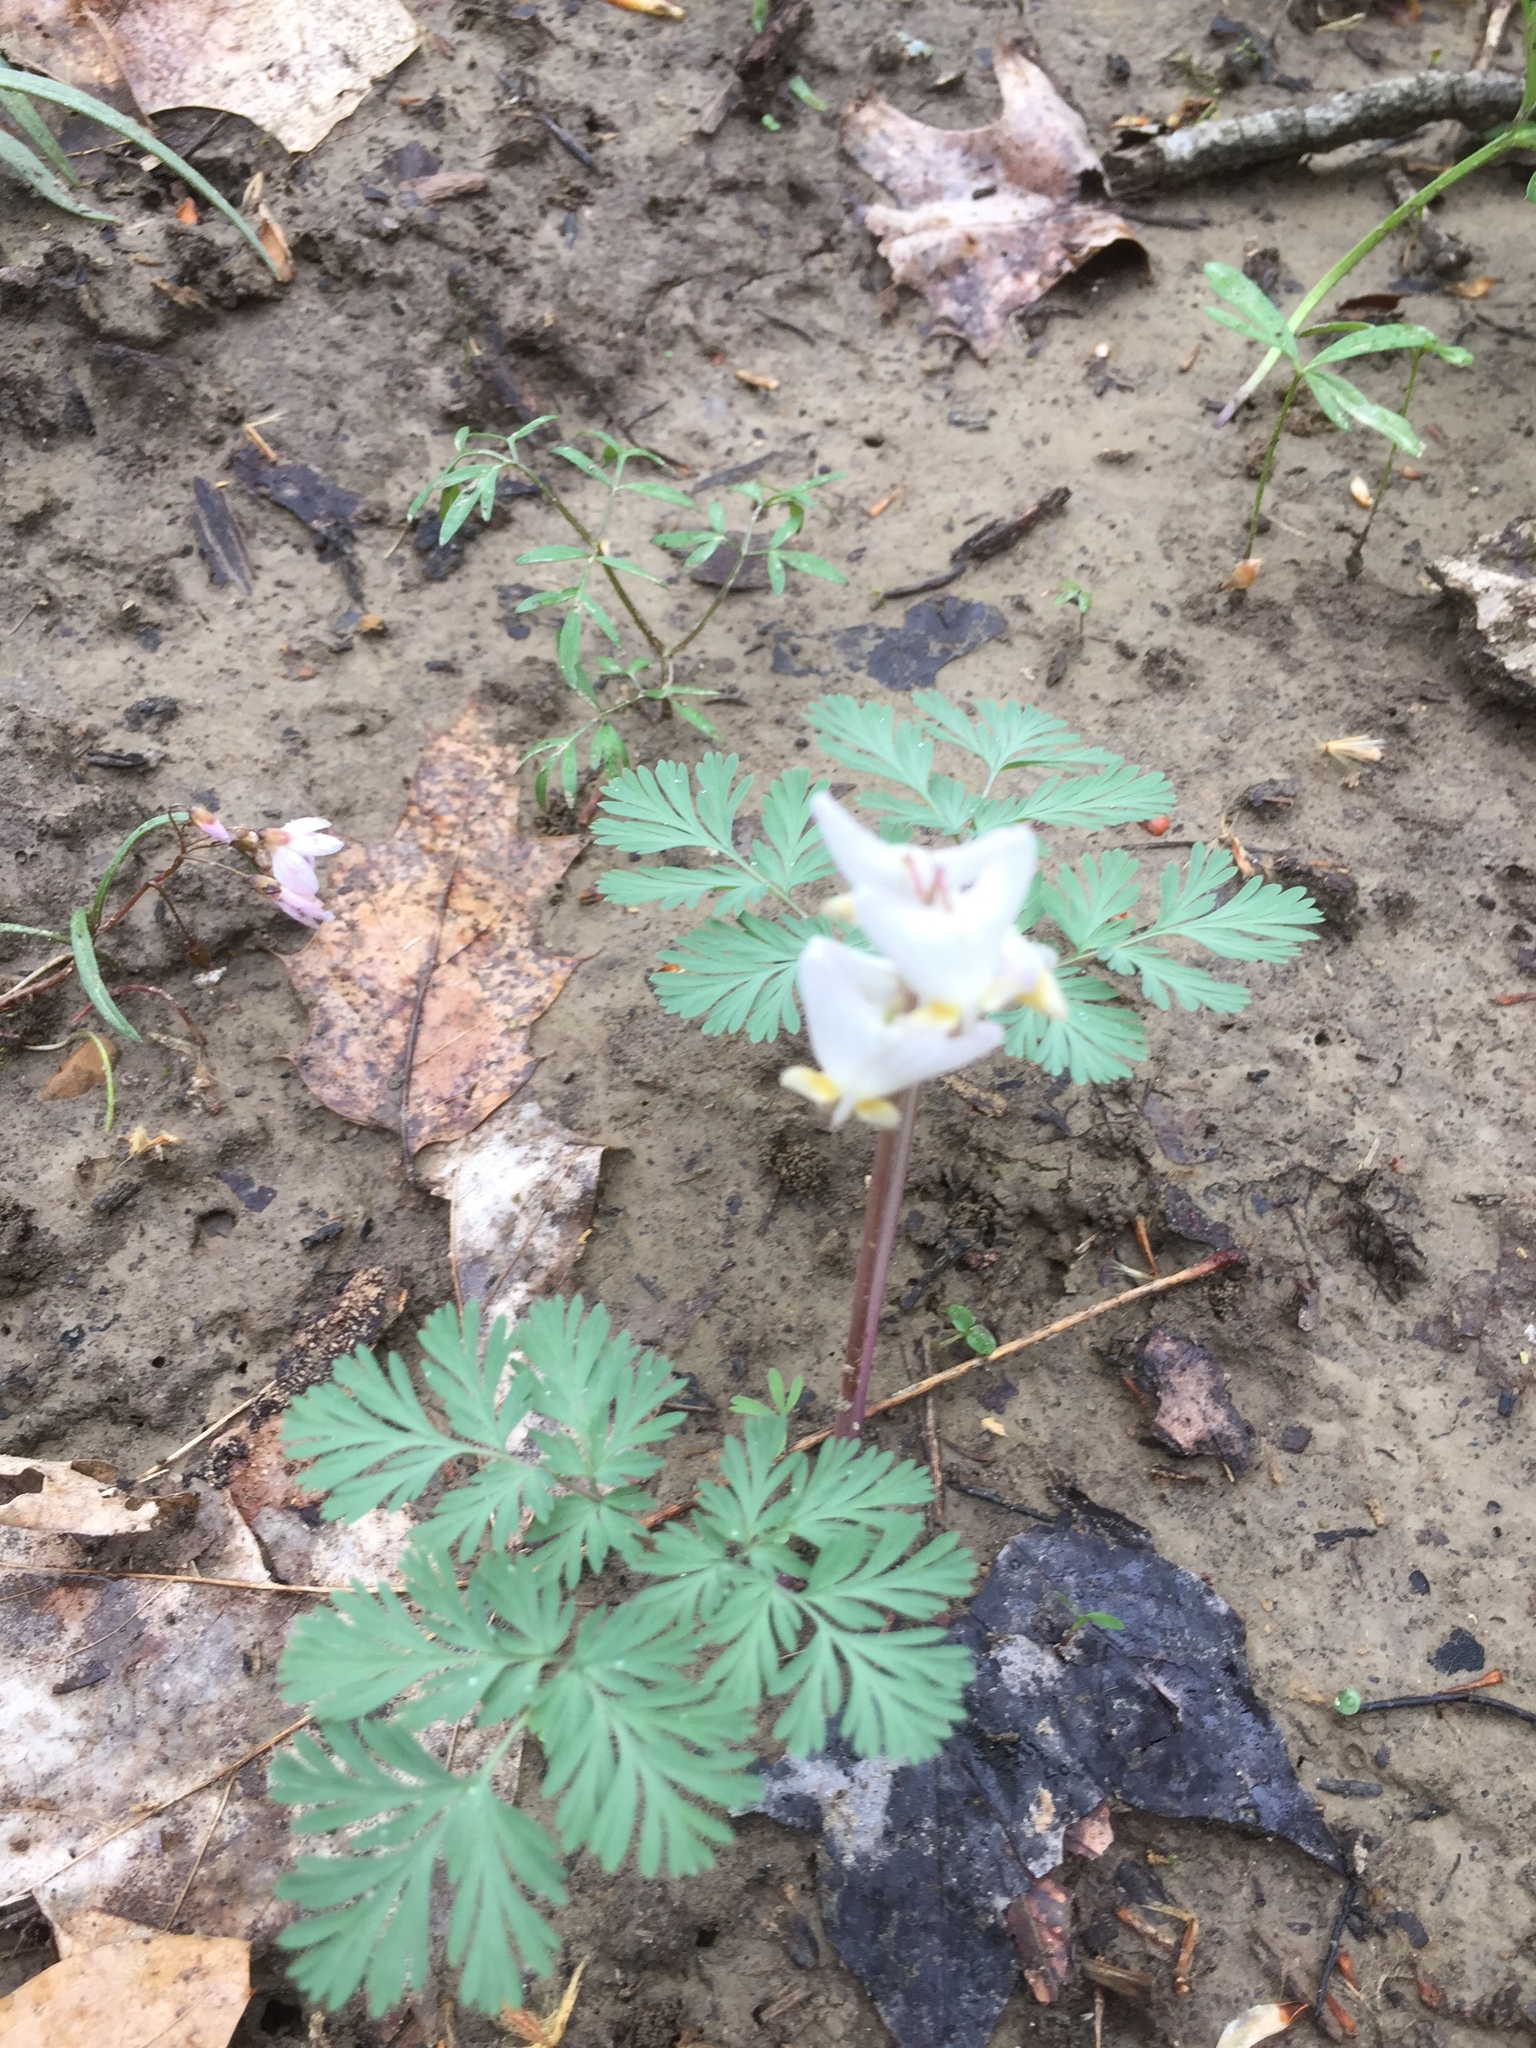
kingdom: Plantae
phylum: Tracheophyta
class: Magnoliopsida
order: Ranunculales
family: Papaveraceae
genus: Dicentra
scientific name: Dicentra cucullaria
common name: Dutchman's breeches
